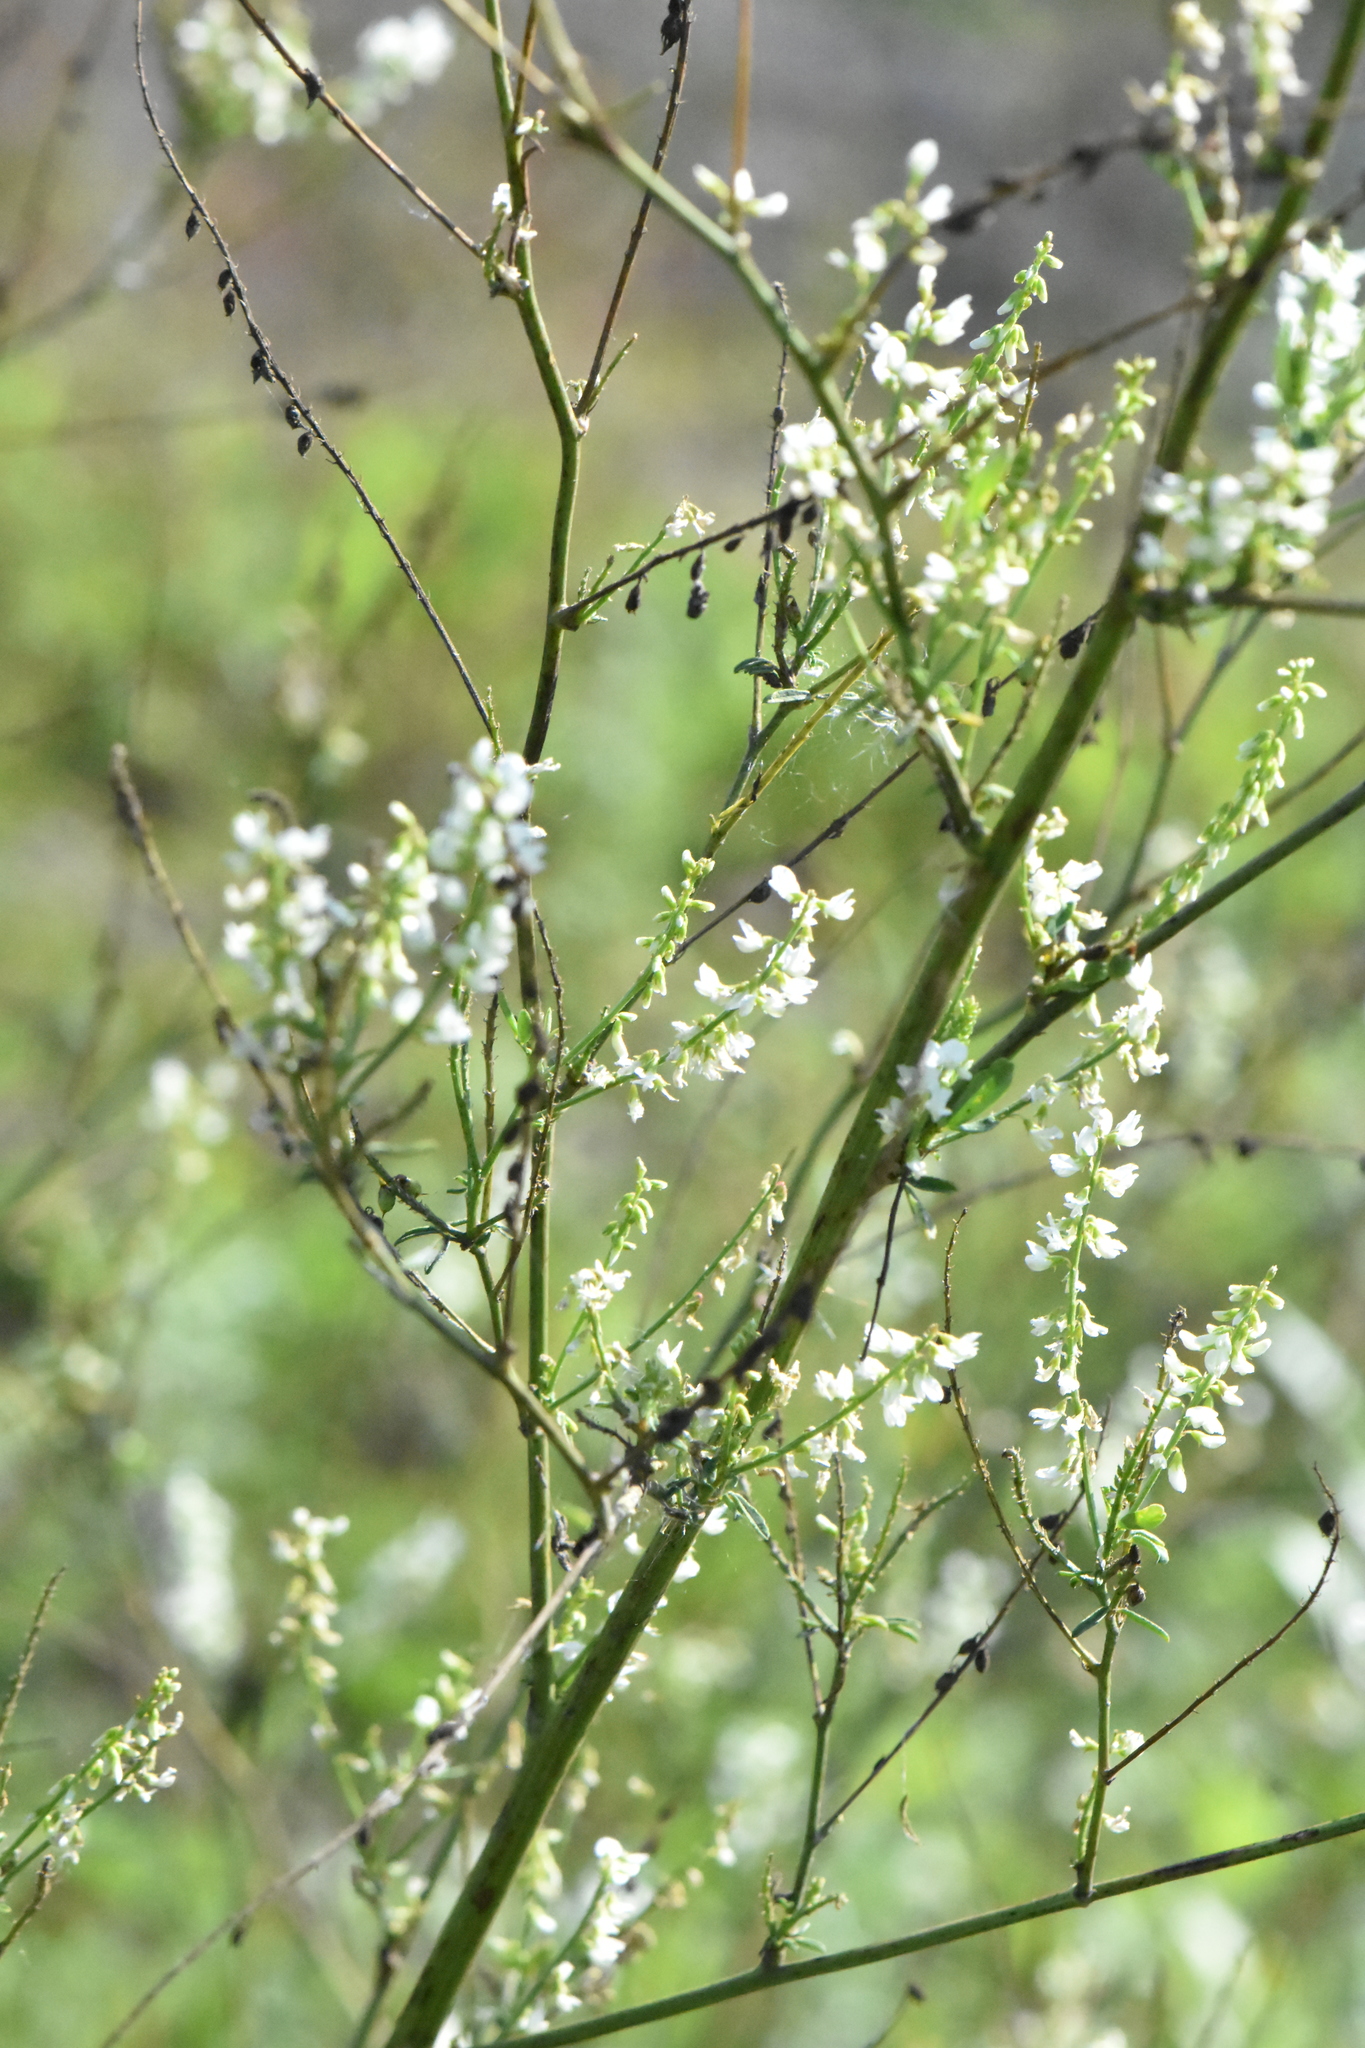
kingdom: Plantae
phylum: Tracheophyta
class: Magnoliopsida
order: Fabales
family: Fabaceae
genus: Melilotus
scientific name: Melilotus albus
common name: White melilot
